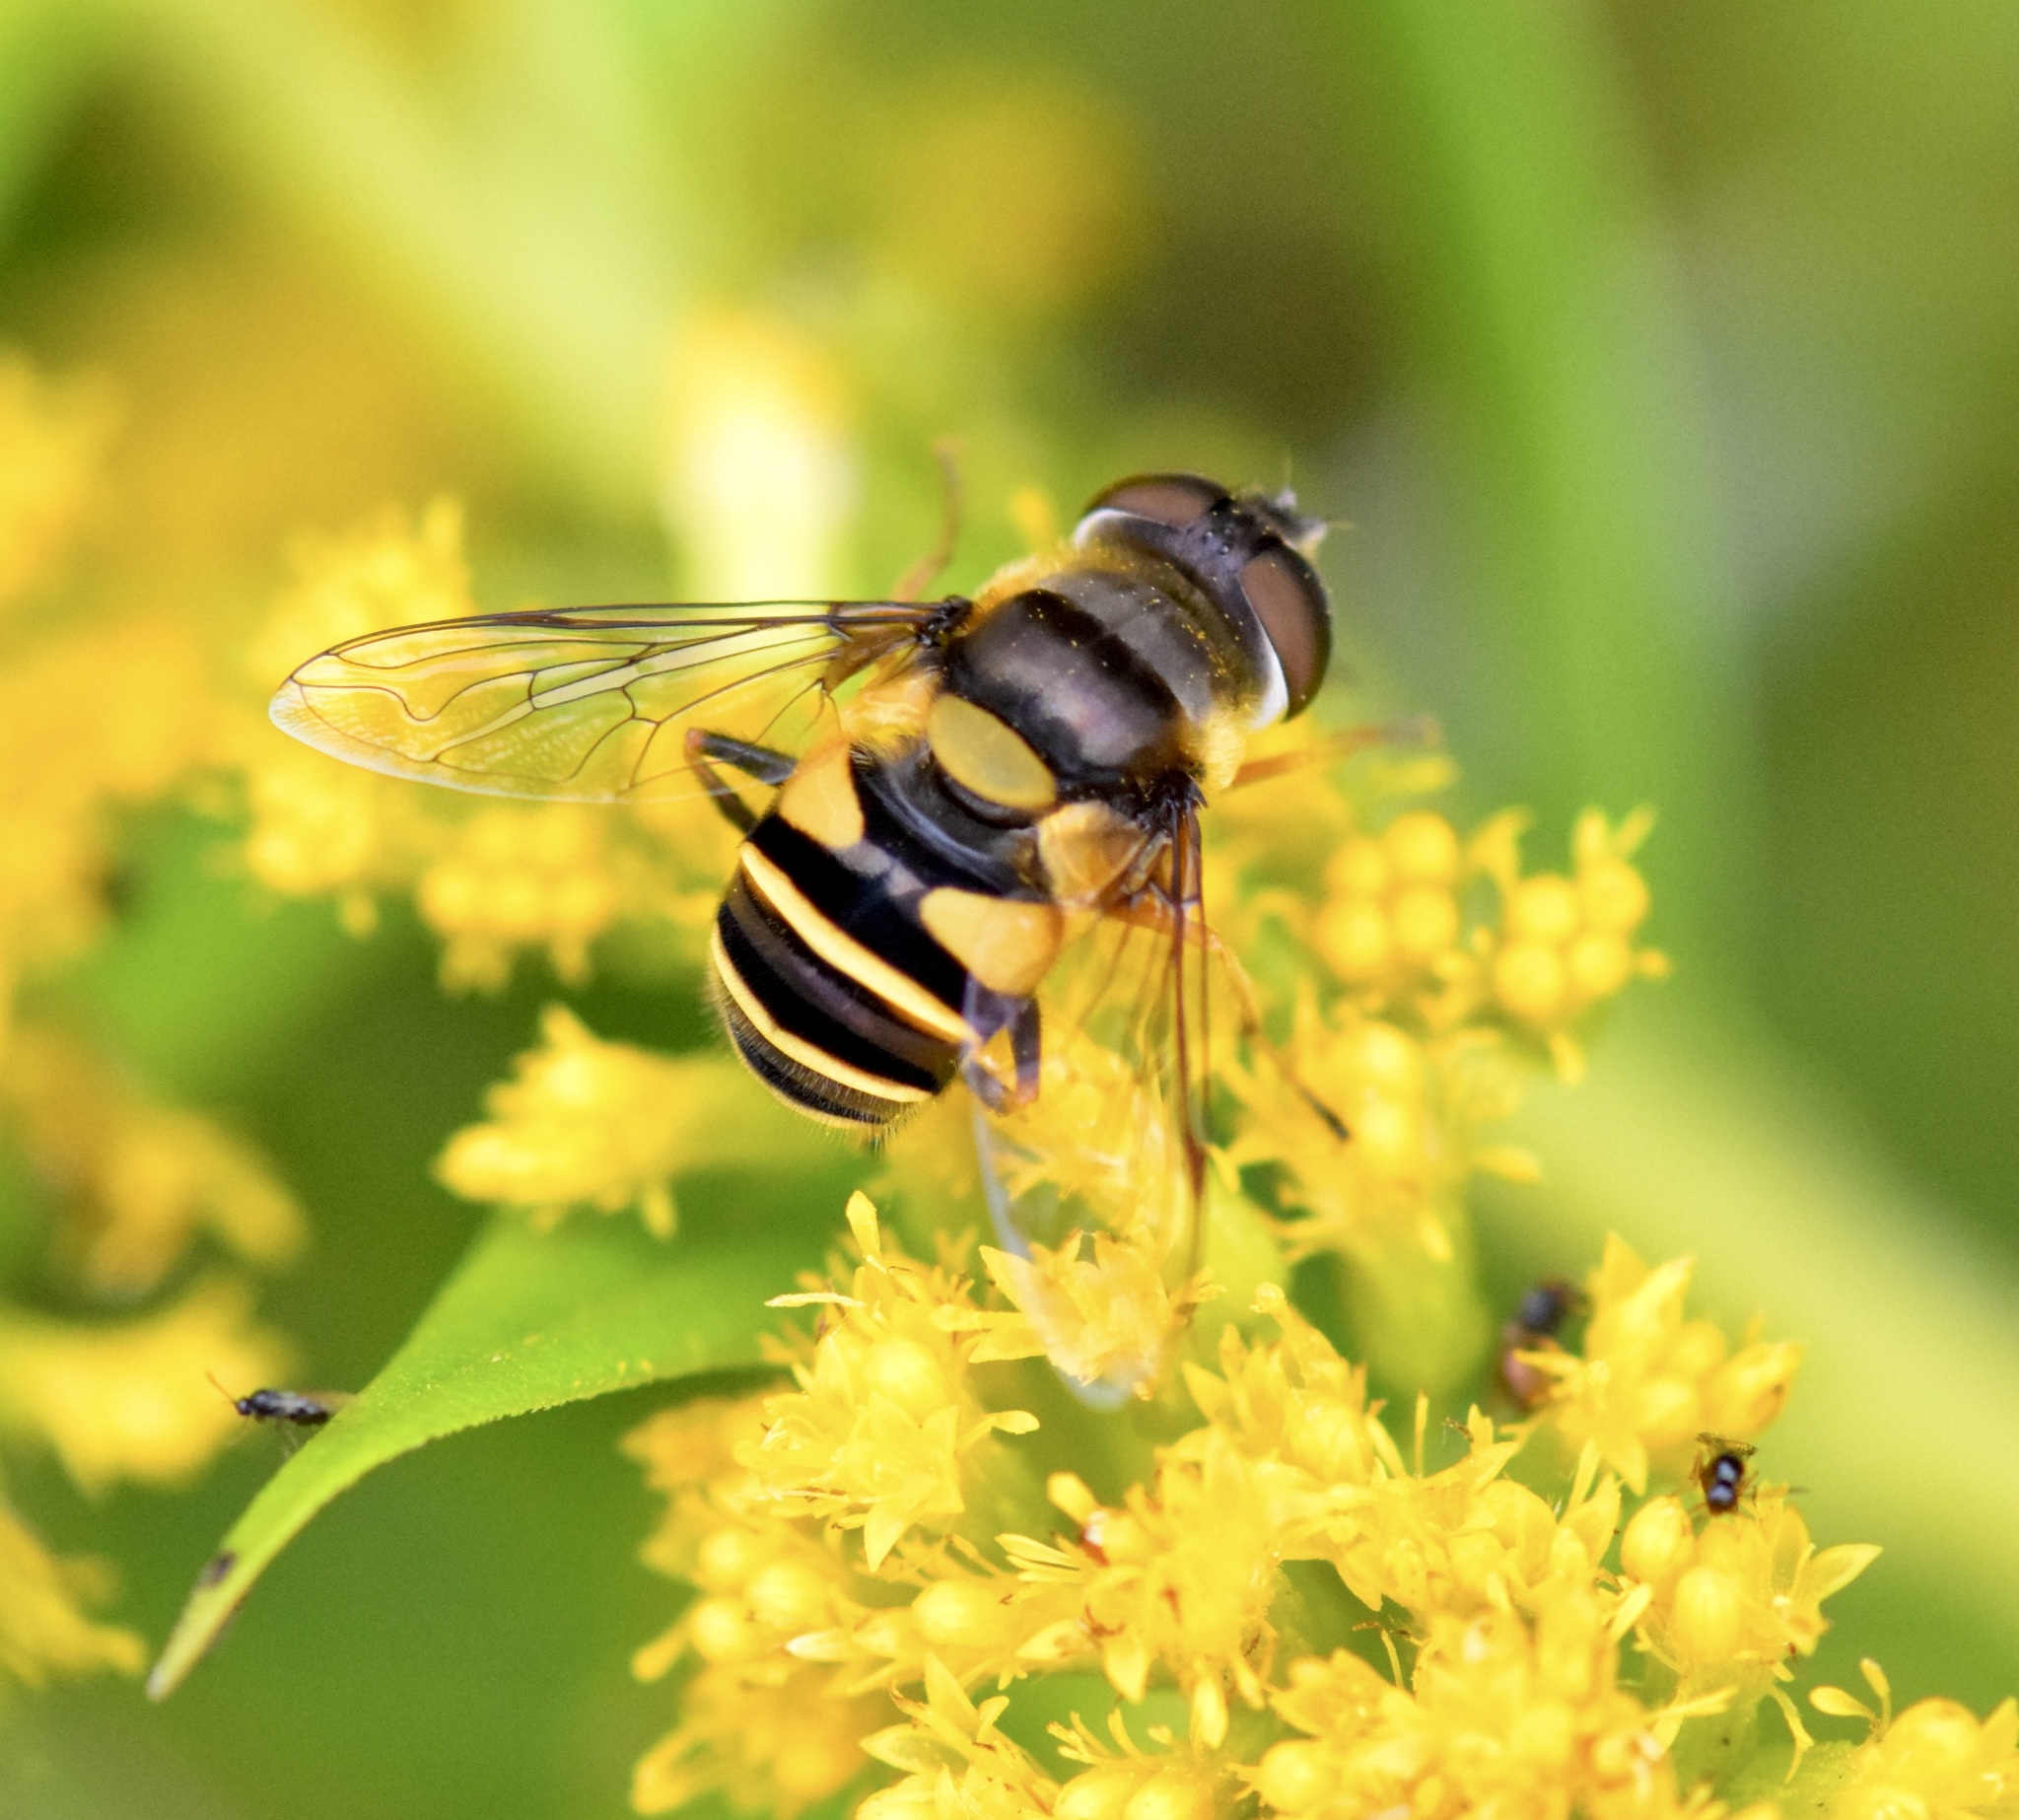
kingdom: Animalia
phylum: Arthropoda
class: Insecta
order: Diptera
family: Syrphidae
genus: Eristalis
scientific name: Eristalis transversa
